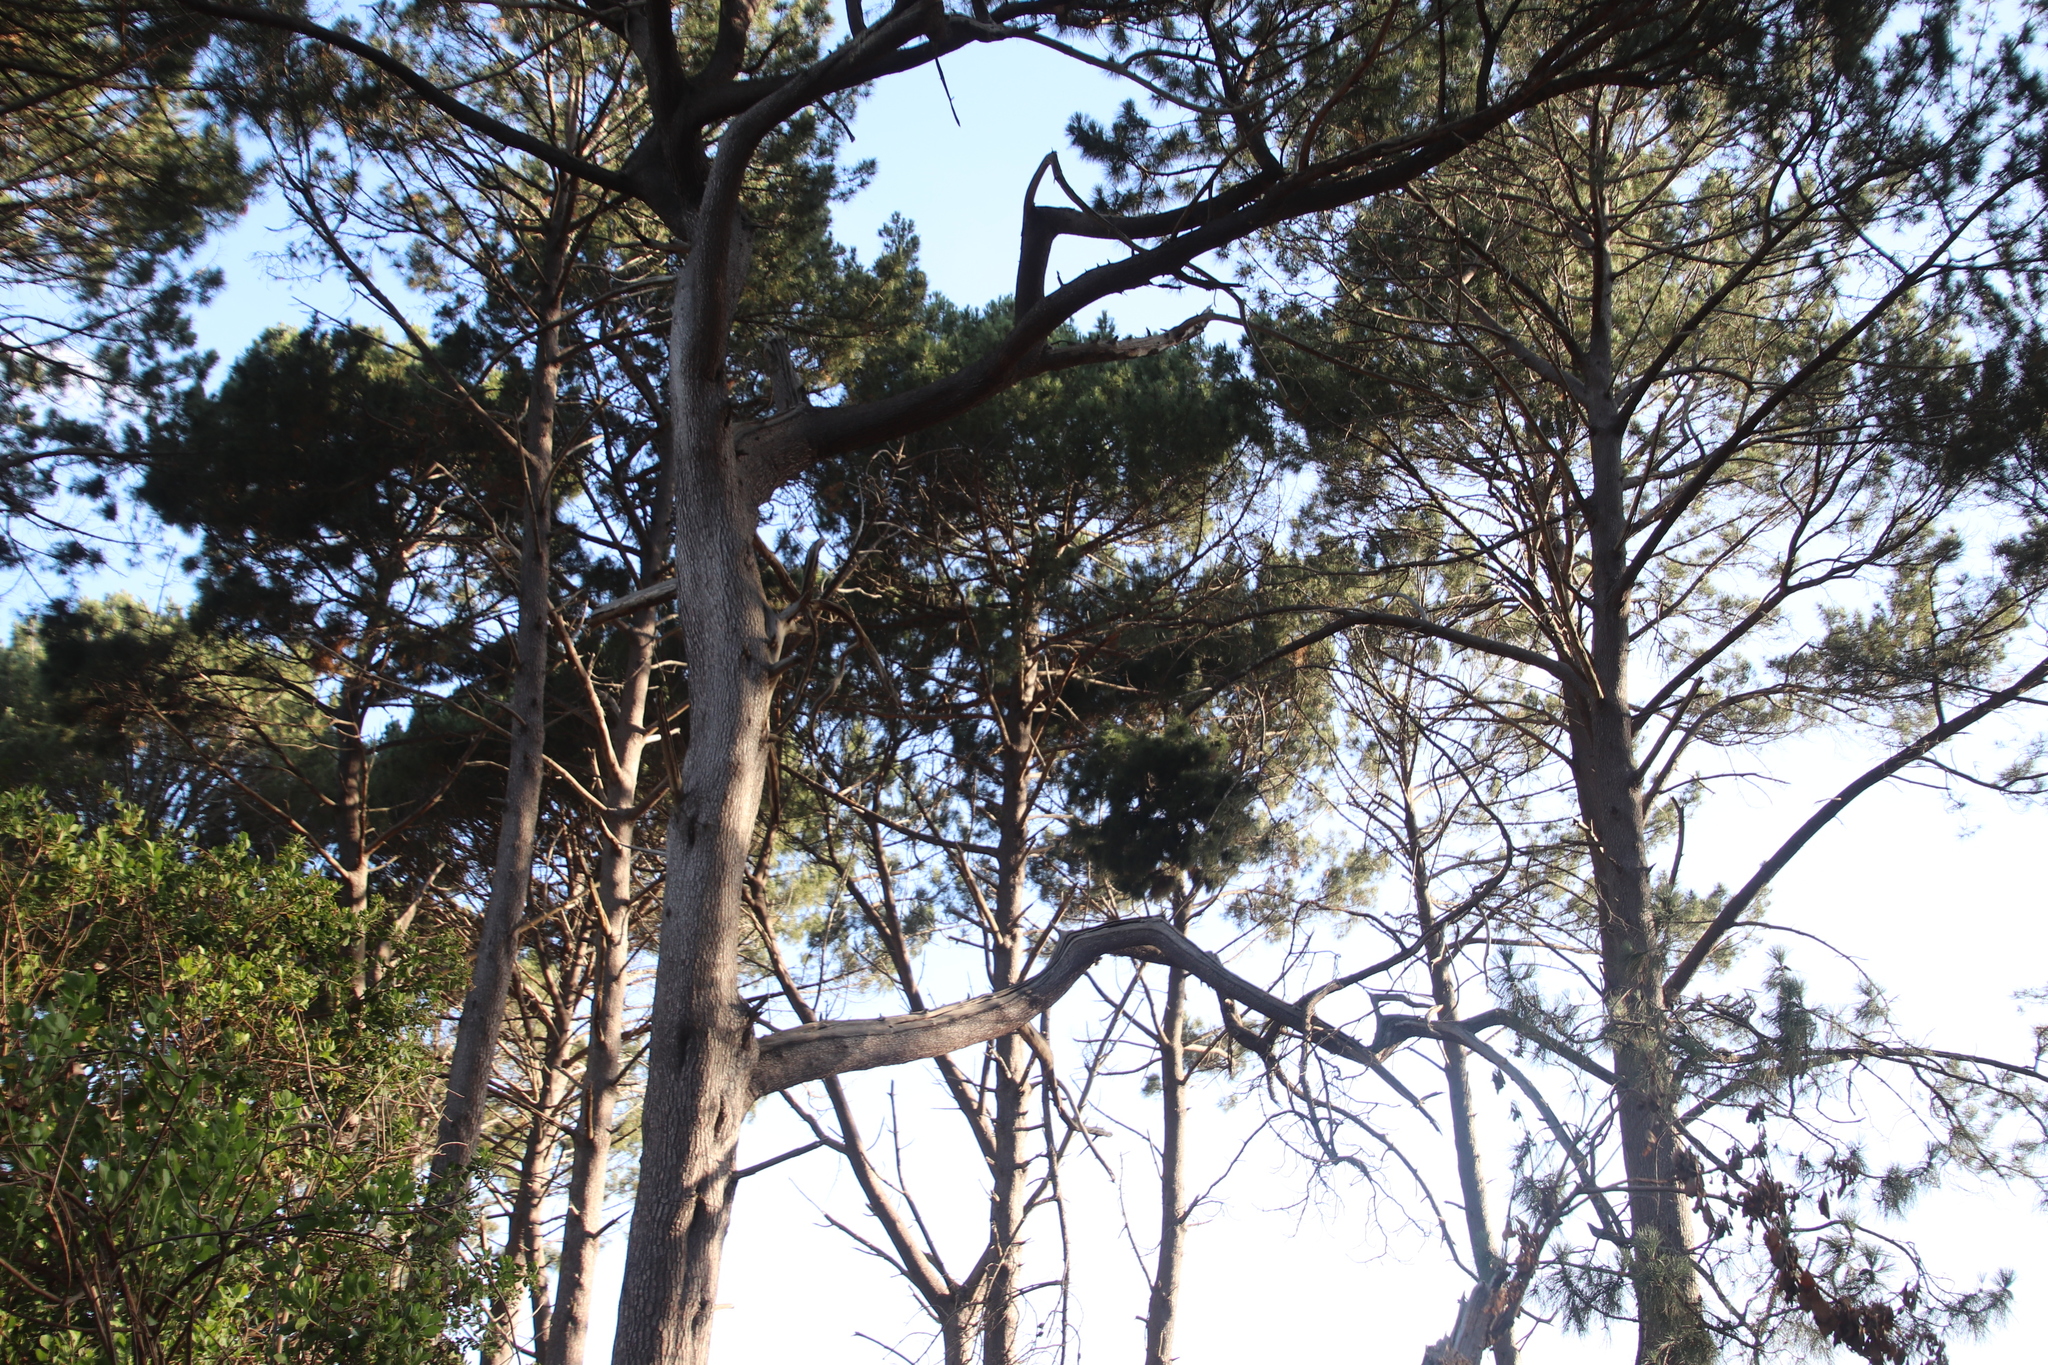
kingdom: Plantae
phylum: Tracheophyta
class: Pinopsida
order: Pinales
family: Pinaceae
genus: Pinus
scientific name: Pinus pinaster
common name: Maritime pine
